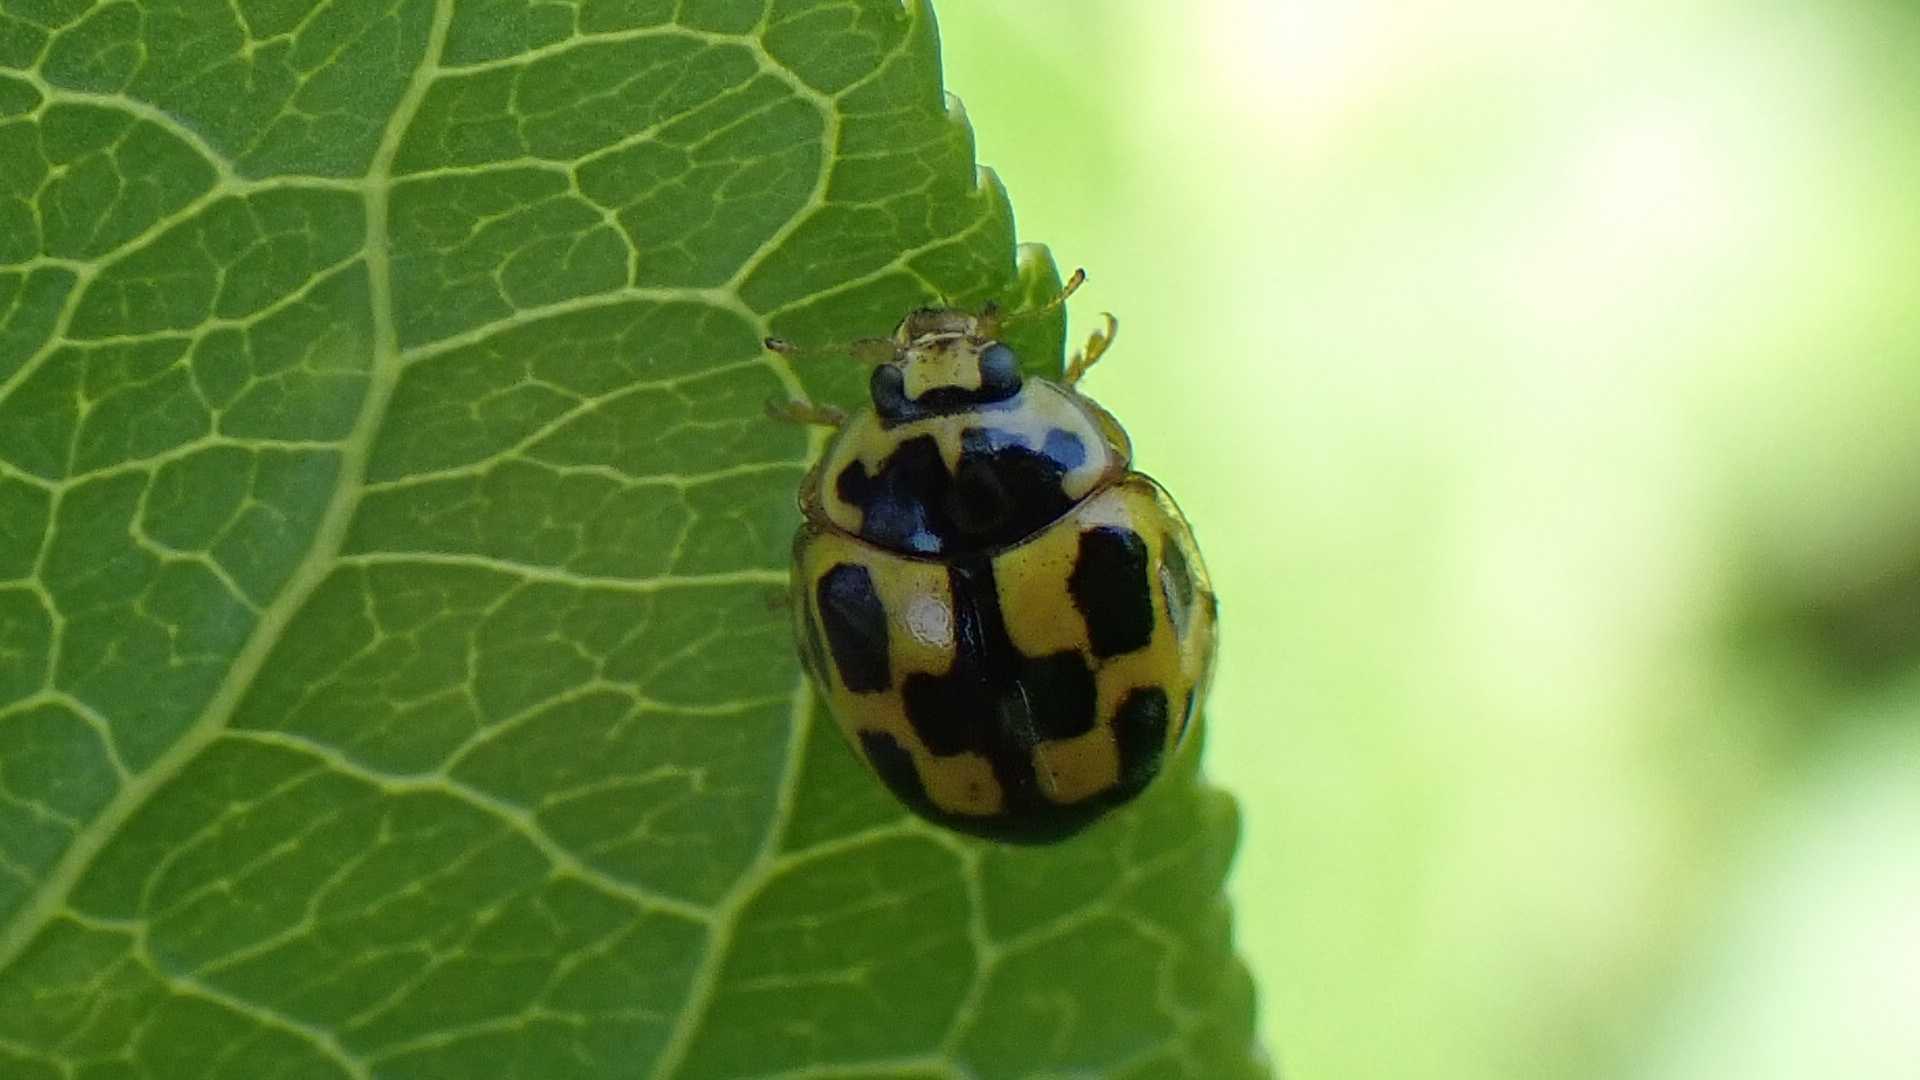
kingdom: Animalia
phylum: Arthropoda
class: Insecta
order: Coleoptera
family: Coccinellidae
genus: Propylaea
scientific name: Propylaea quatuordecimpunctata
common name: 14-spotted ladybird beetle
